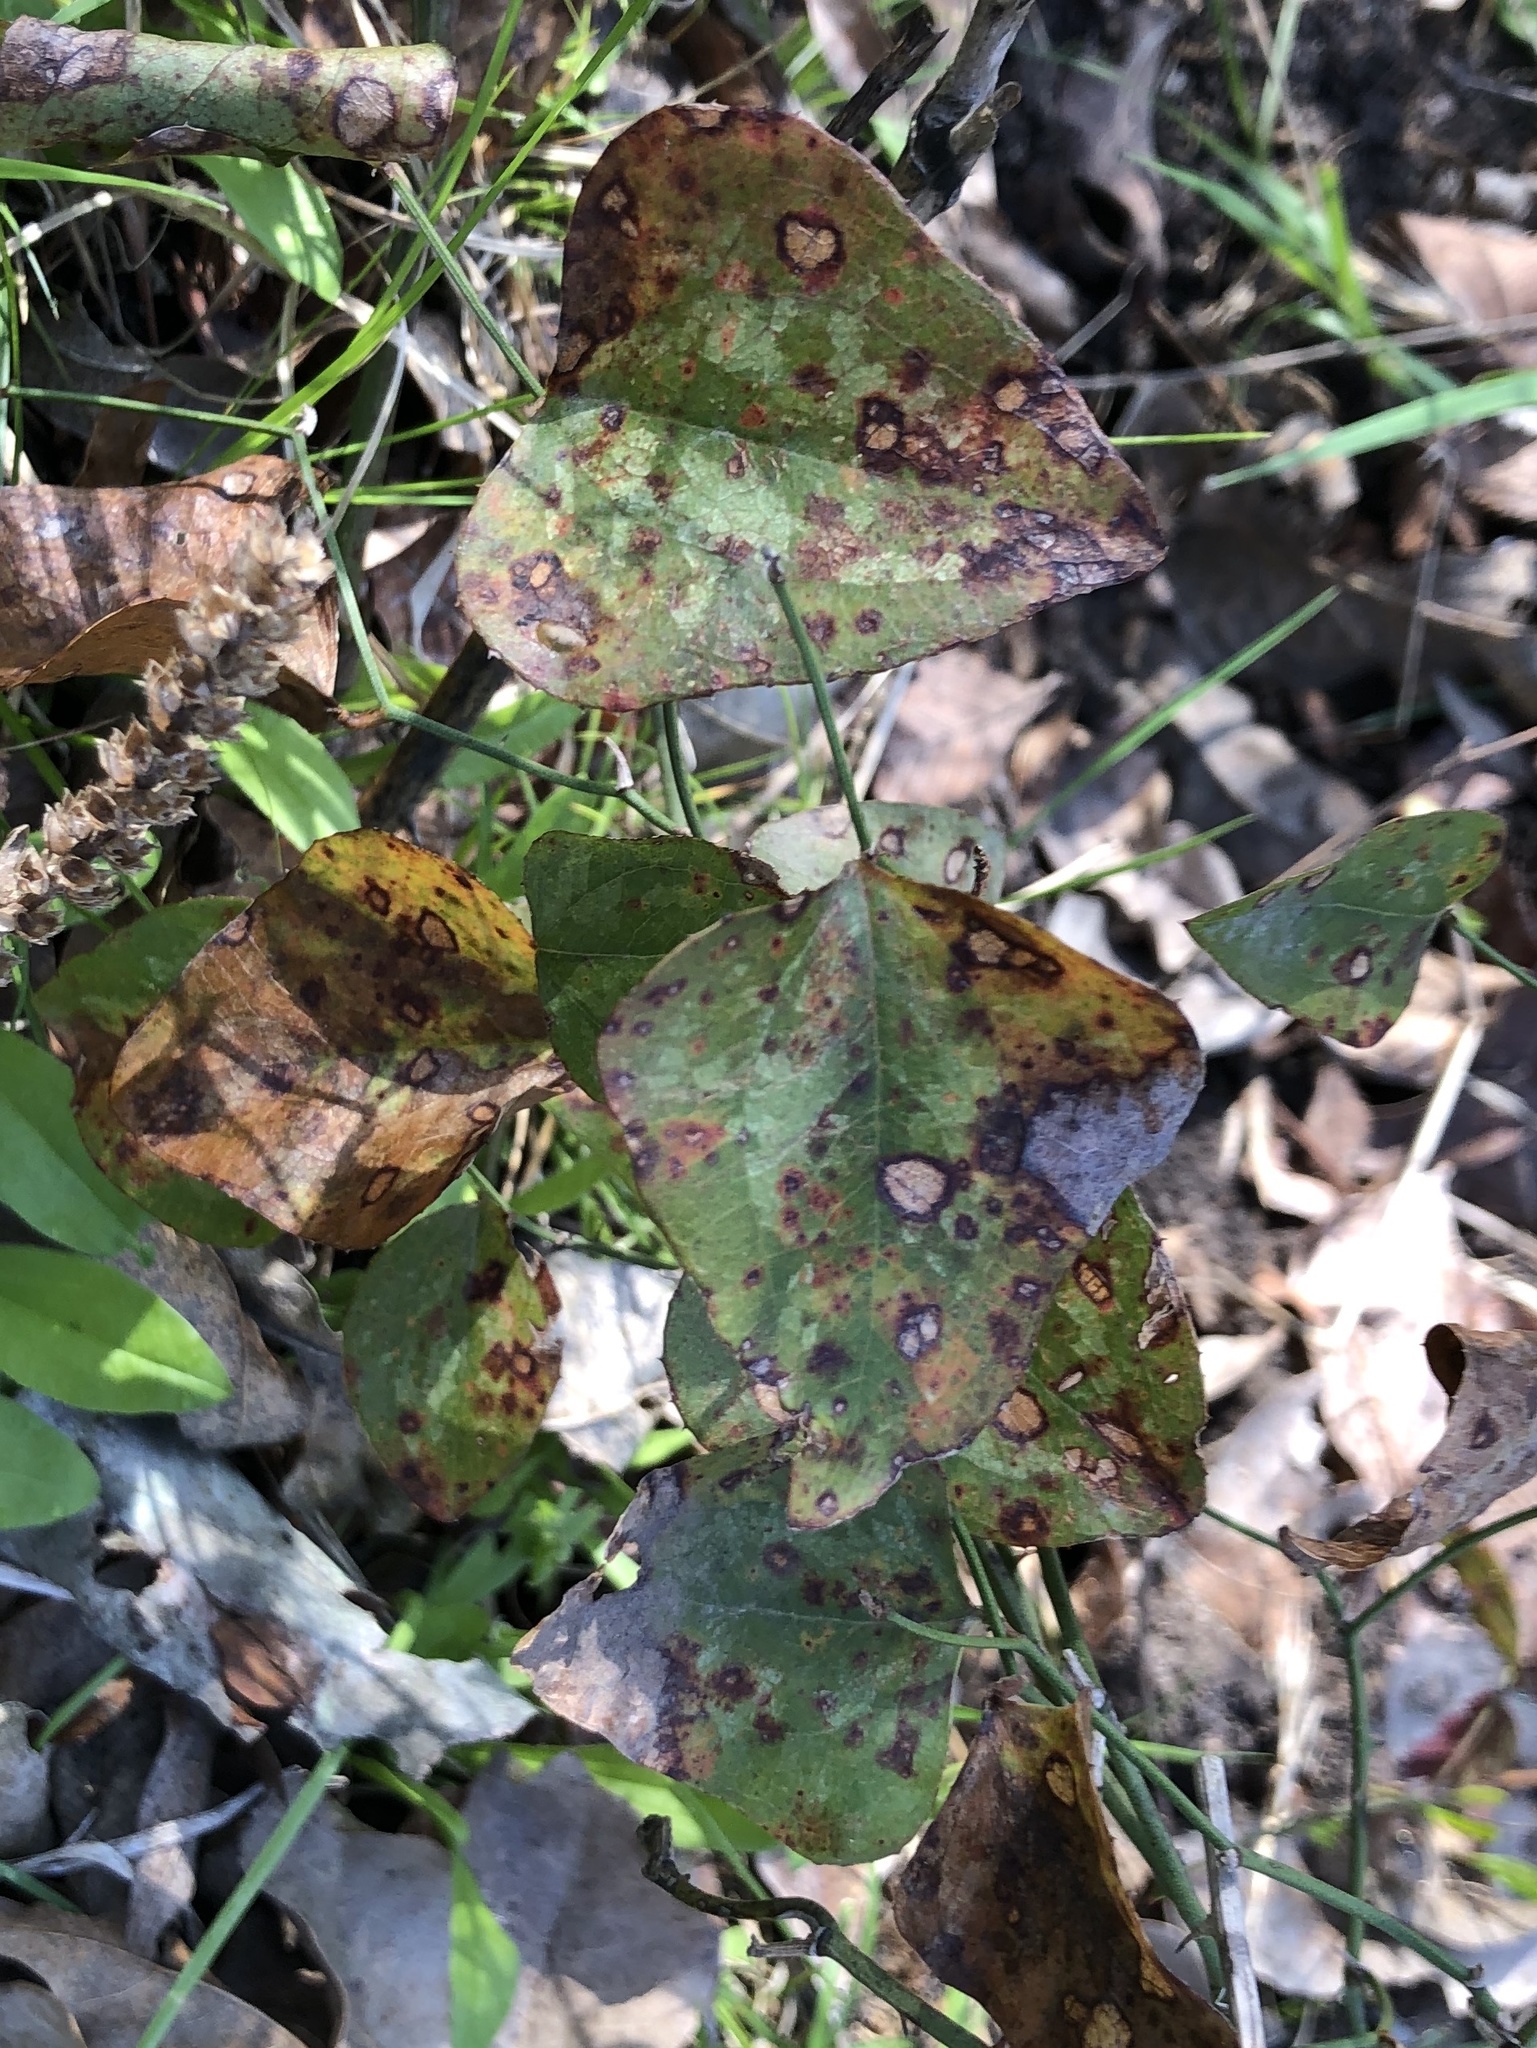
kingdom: Plantae
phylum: Tracheophyta
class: Liliopsida
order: Liliales
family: Smilacaceae
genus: Smilax
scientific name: Smilax bona-nox
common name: Catbrier
